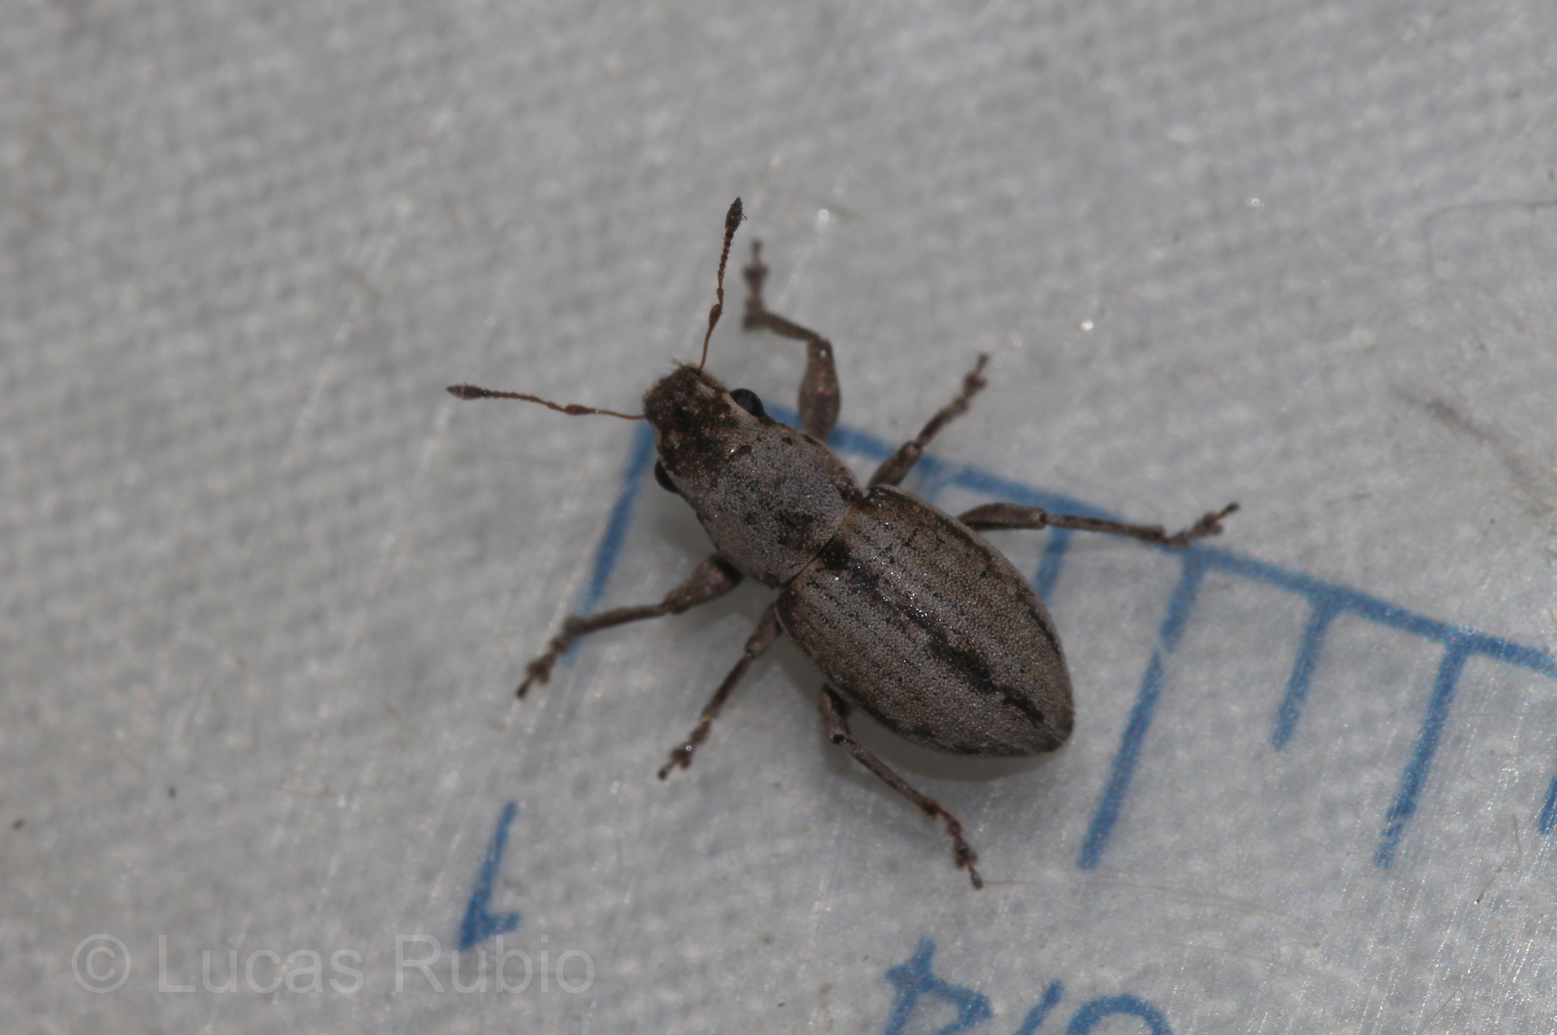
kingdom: Animalia
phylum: Arthropoda
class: Insecta
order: Coleoptera
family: Curculionidae
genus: Atrichonotus
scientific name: Atrichonotus taeniatulus
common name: Small lucerne weevil
